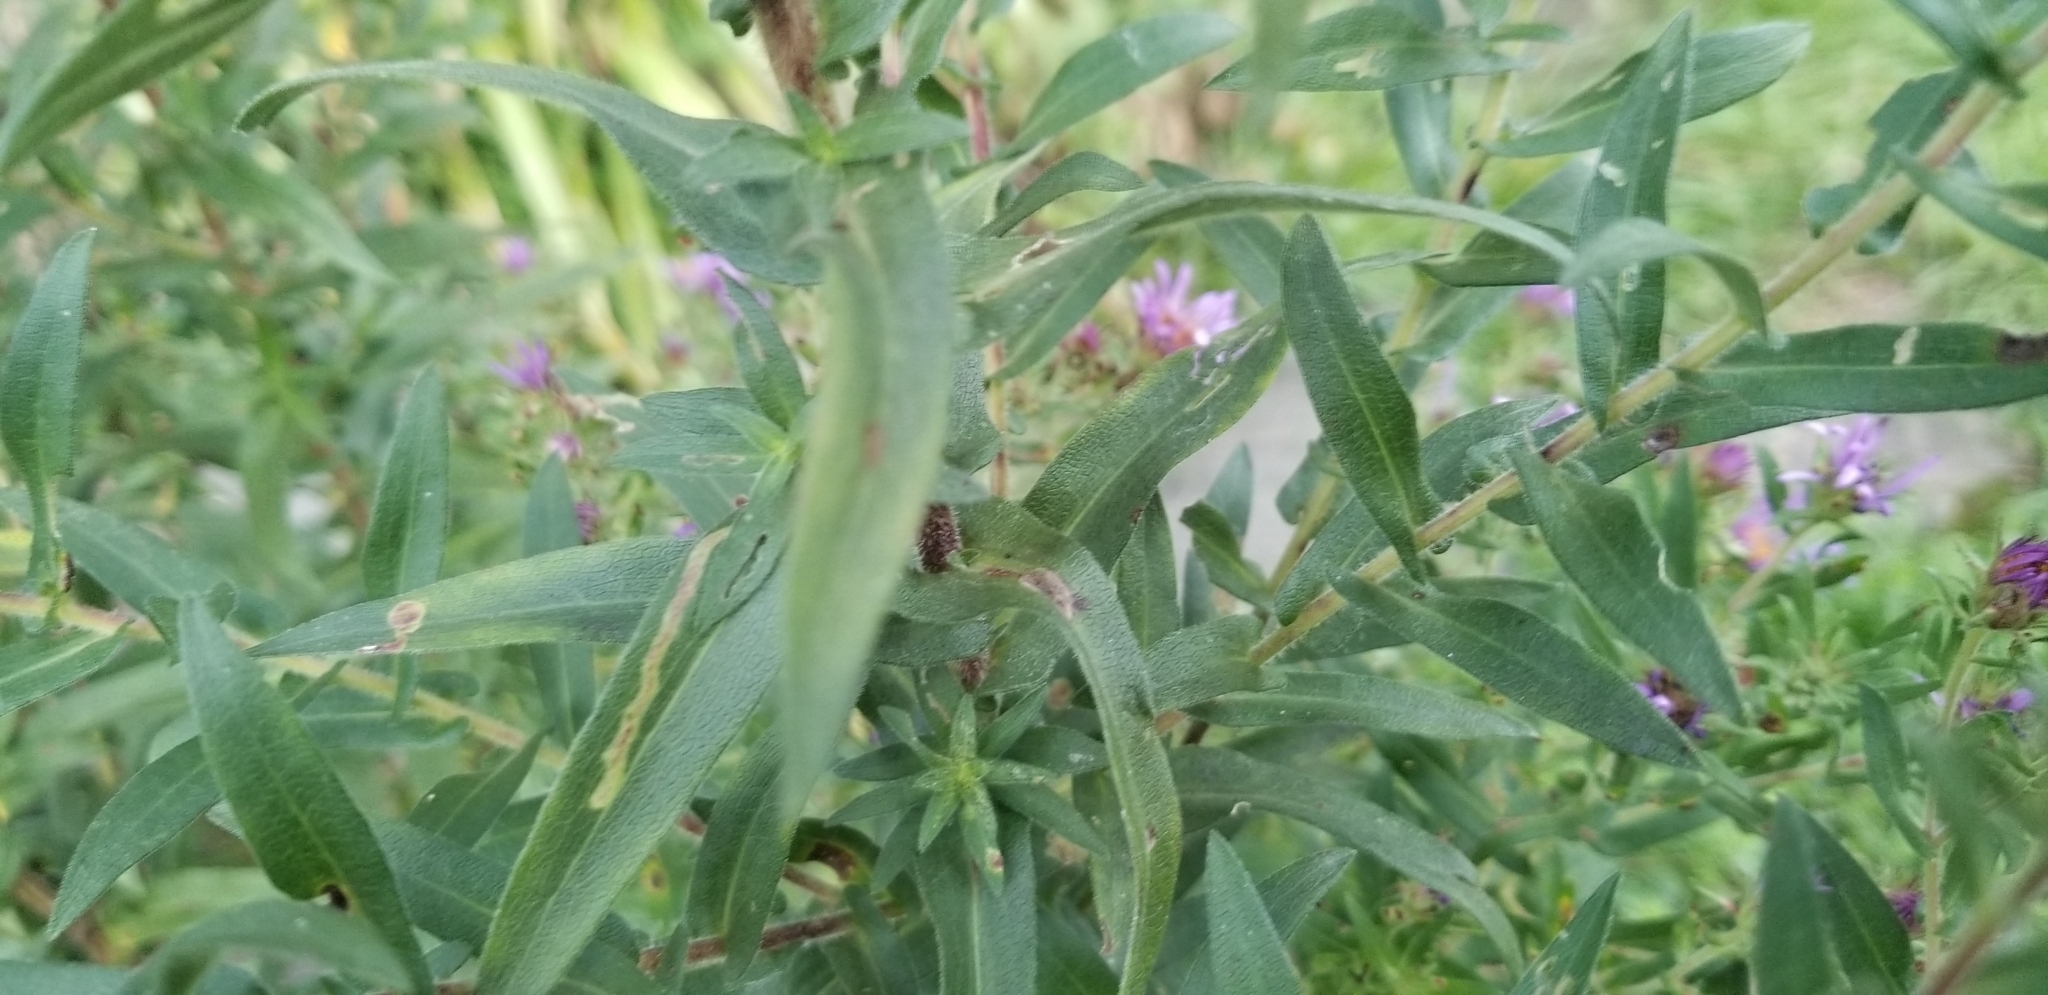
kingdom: Plantae
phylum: Tracheophyta
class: Magnoliopsida
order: Asterales
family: Asteraceae
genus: Symphyotrichum
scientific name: Symphyotrichum novae-angliae
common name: Michaelmas daisy
